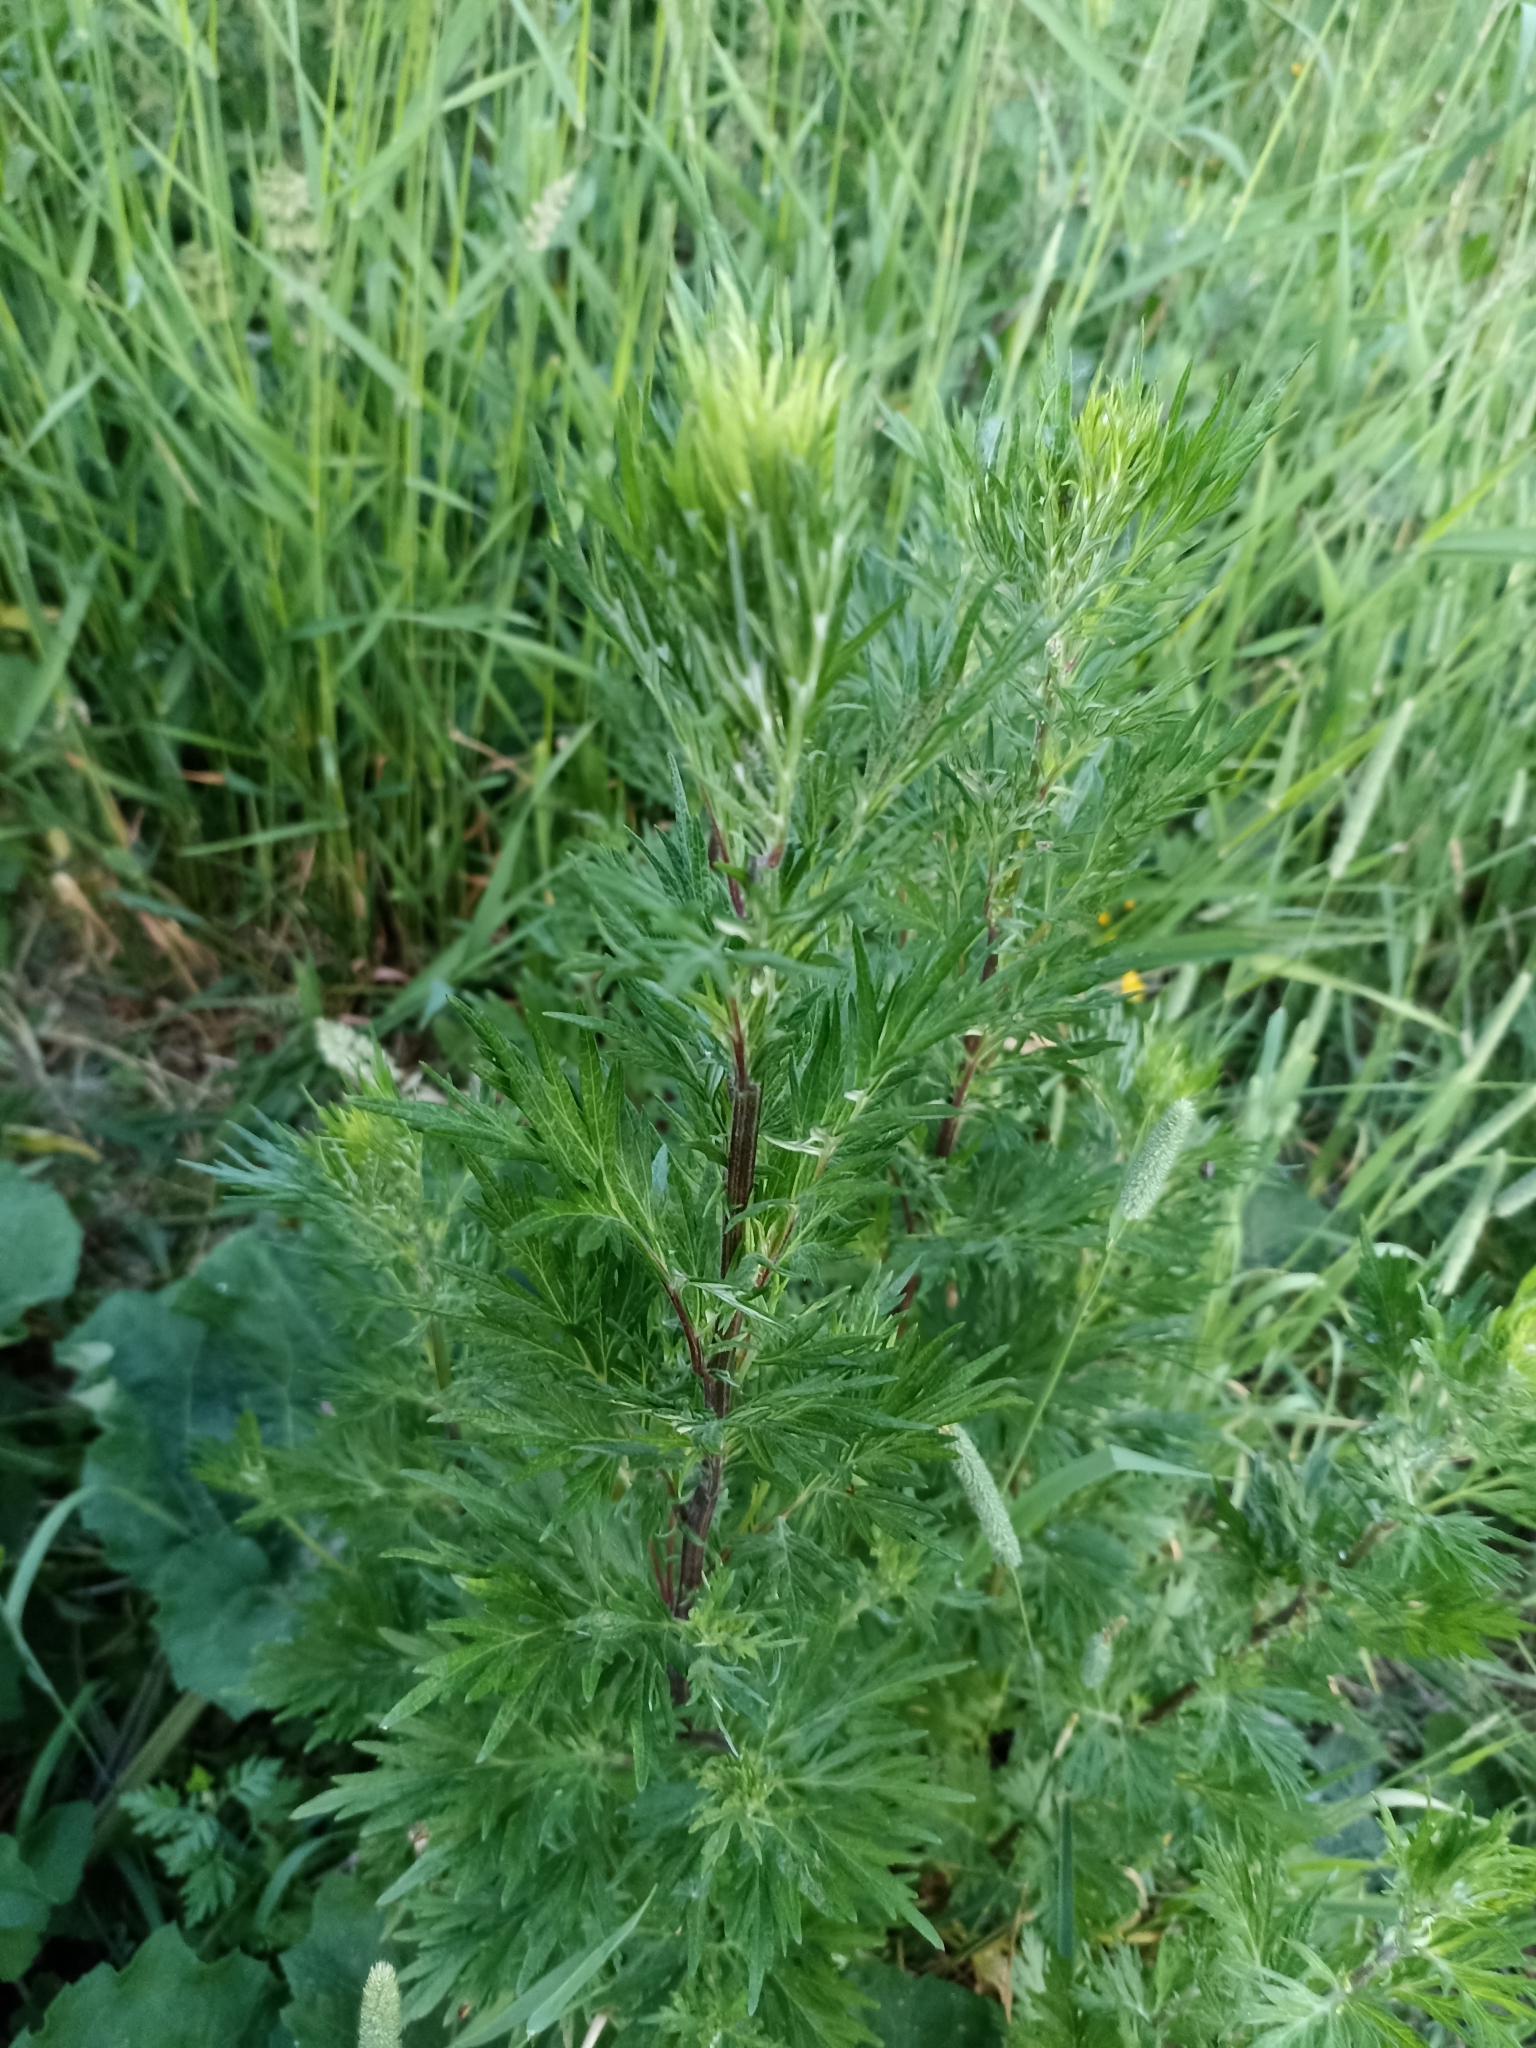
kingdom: Plantae
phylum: Tracheophyta
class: Magnoliopsida
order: Asterales
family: Asteraceae
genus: Artemisia
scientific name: Artemisia vulgaris
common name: Mugwort
